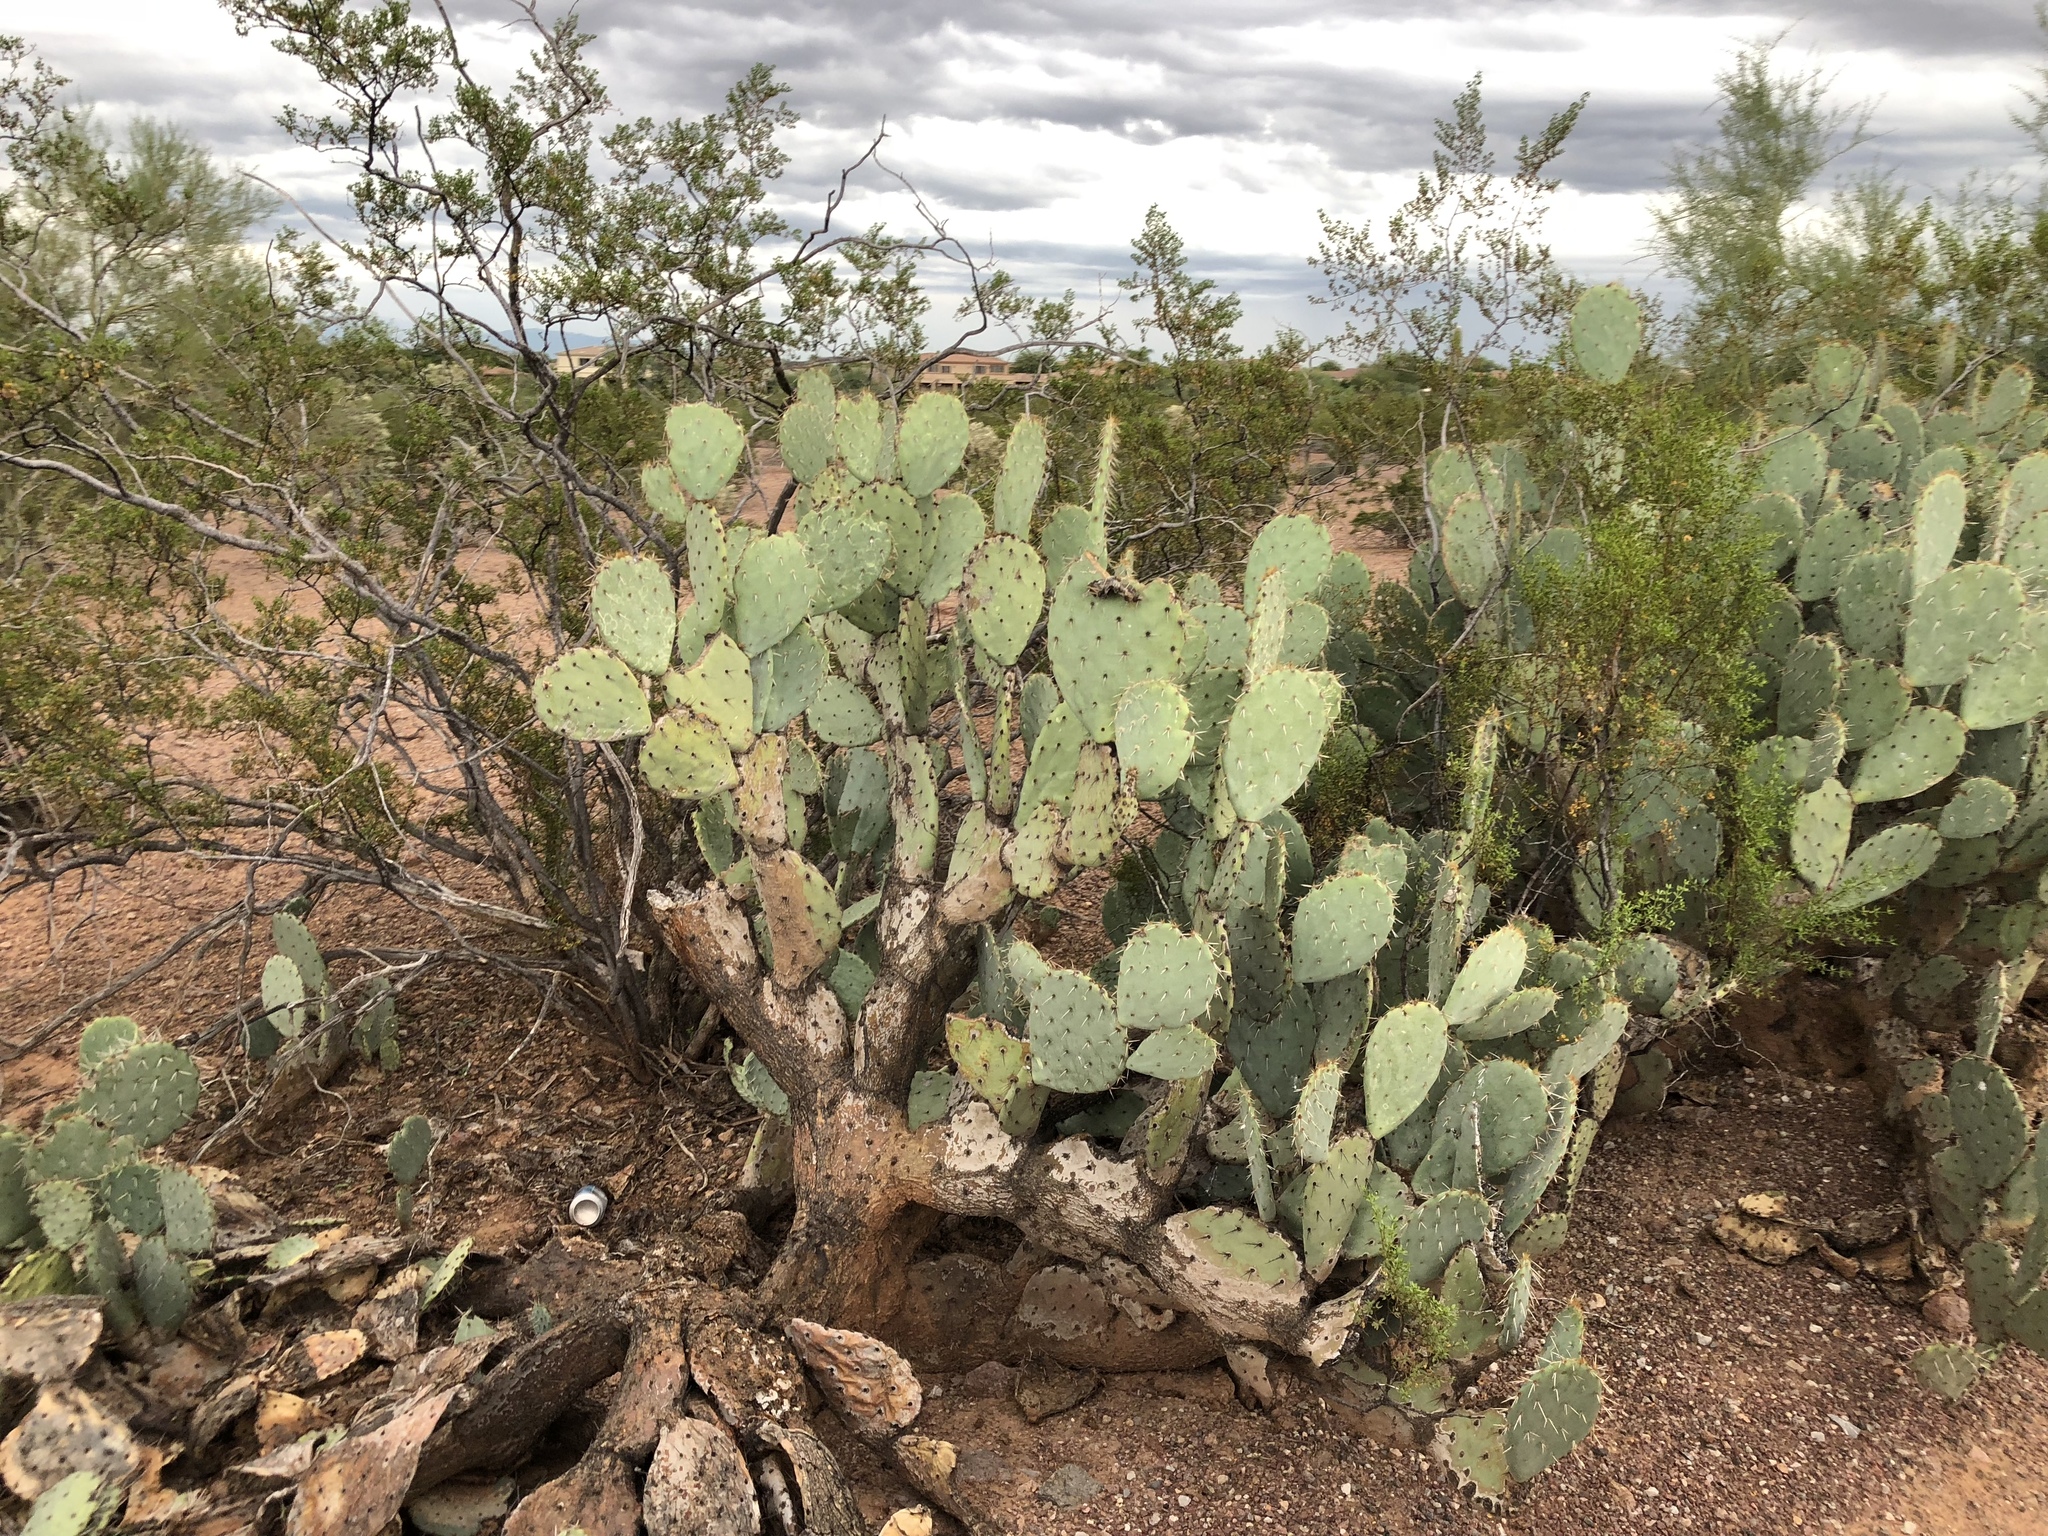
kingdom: Plantae
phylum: Tracheophyta
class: Magnoliopsida
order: Caryophyllales
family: Cactaceae
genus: Opuntia
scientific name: Opuntia engelmannii
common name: Cactus-apple
